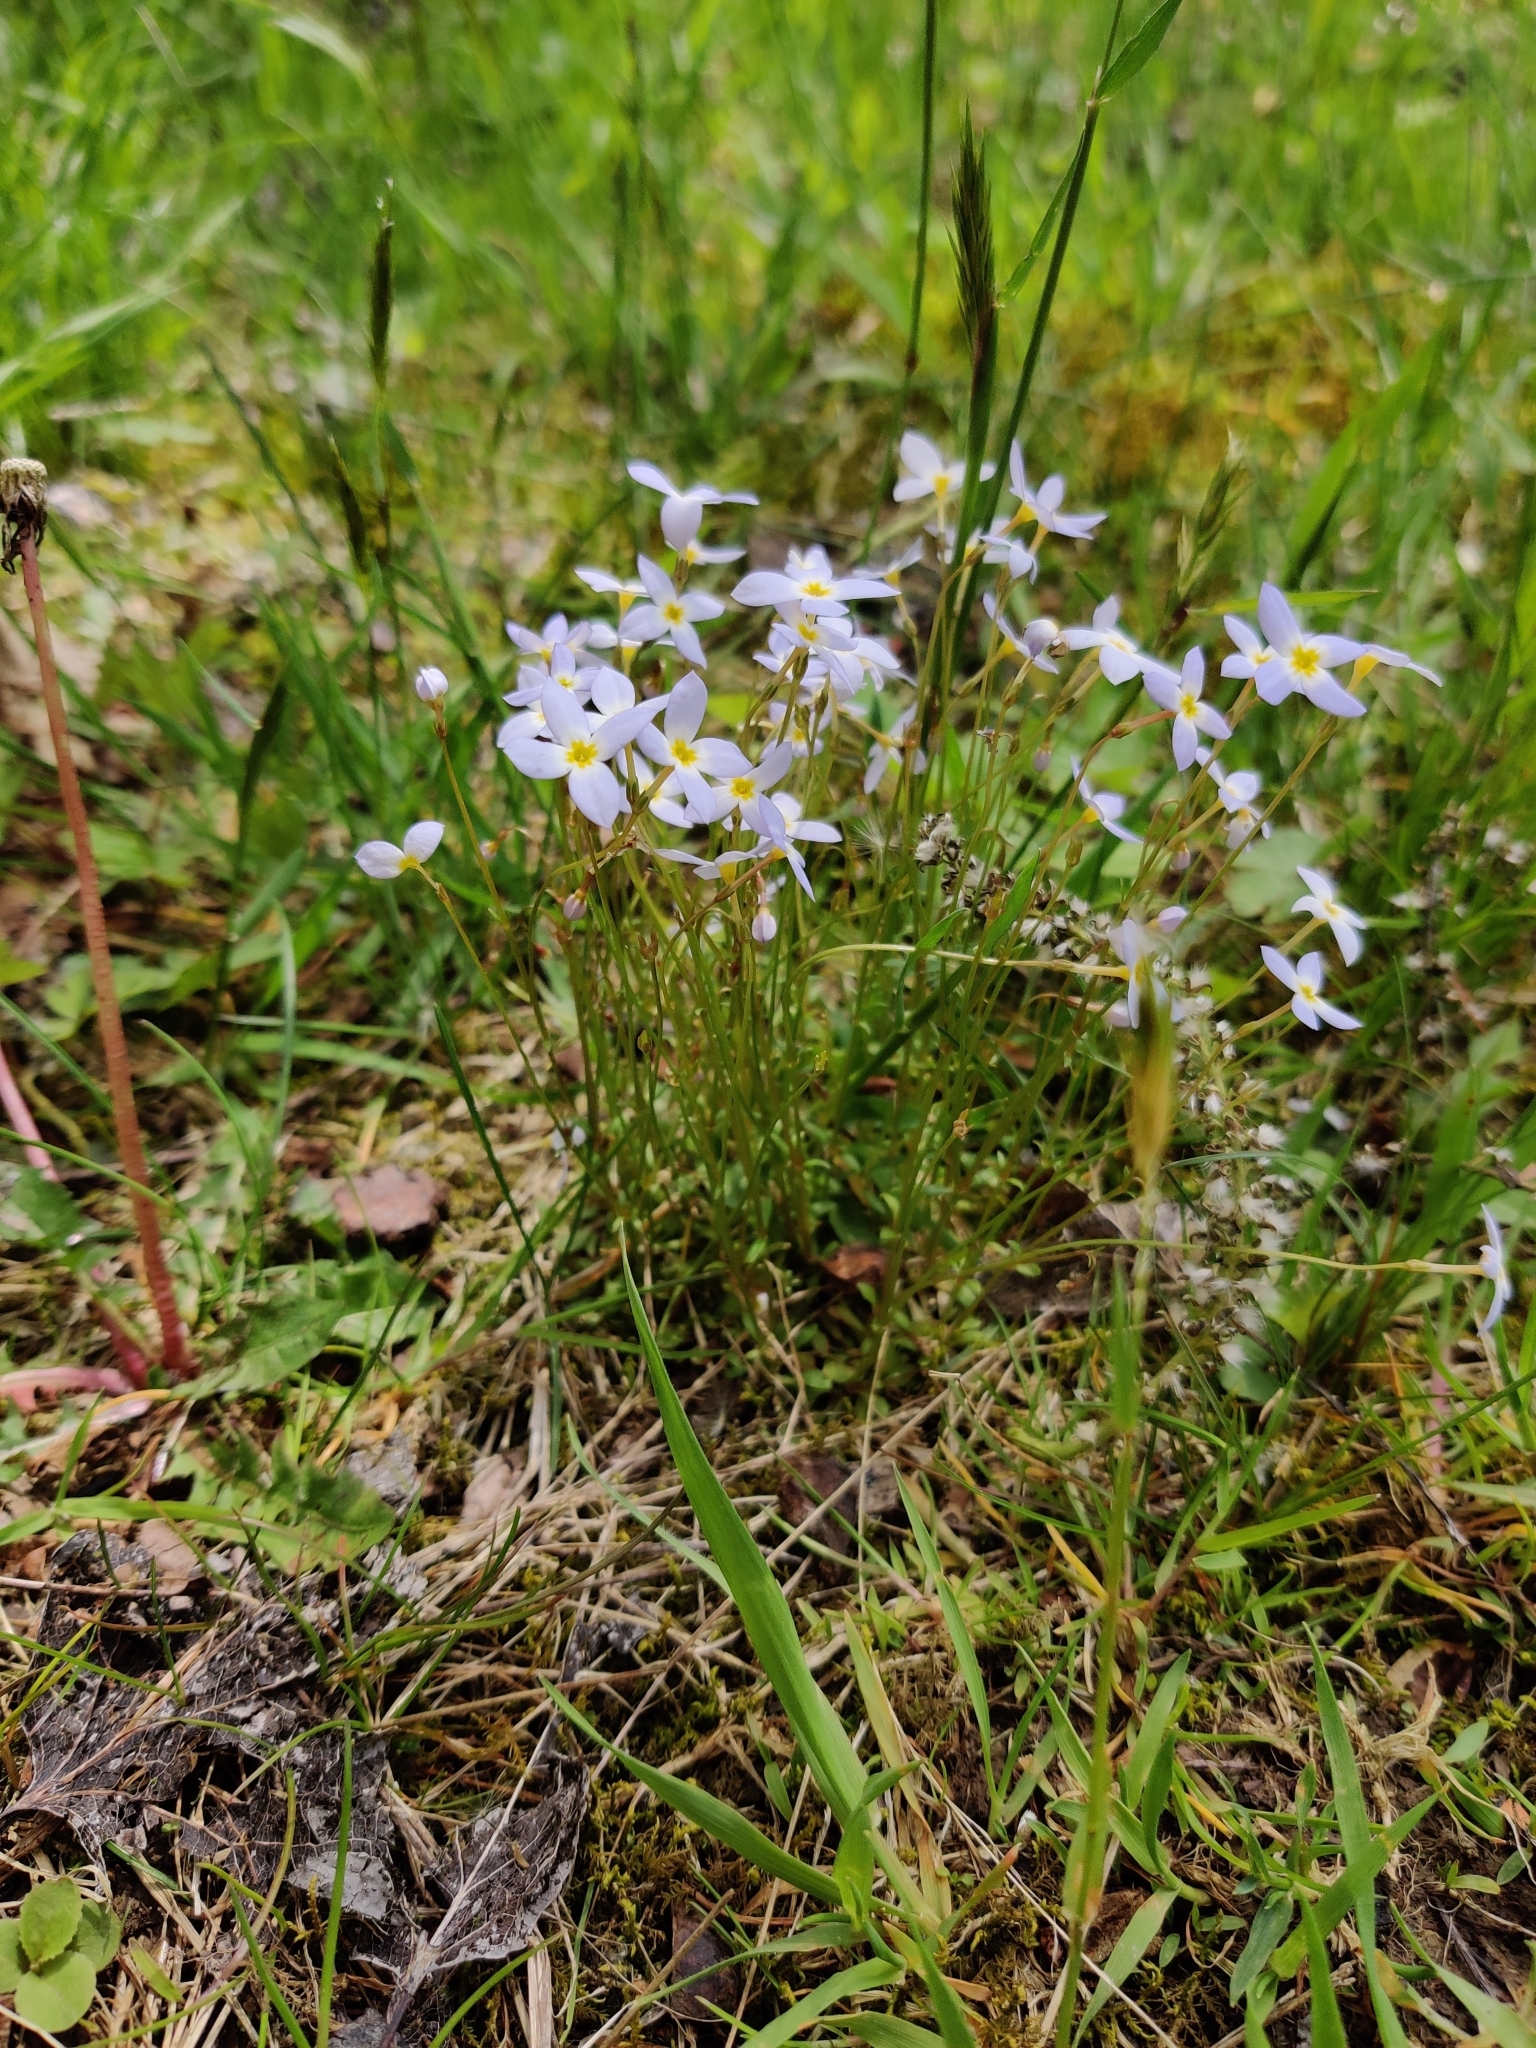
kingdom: Plantae
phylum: Tracheophyta
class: Magnoliopsida
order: Gentianales
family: Rubiaceae
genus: Houstonia
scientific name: Houstonia caerulea
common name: Bluets
